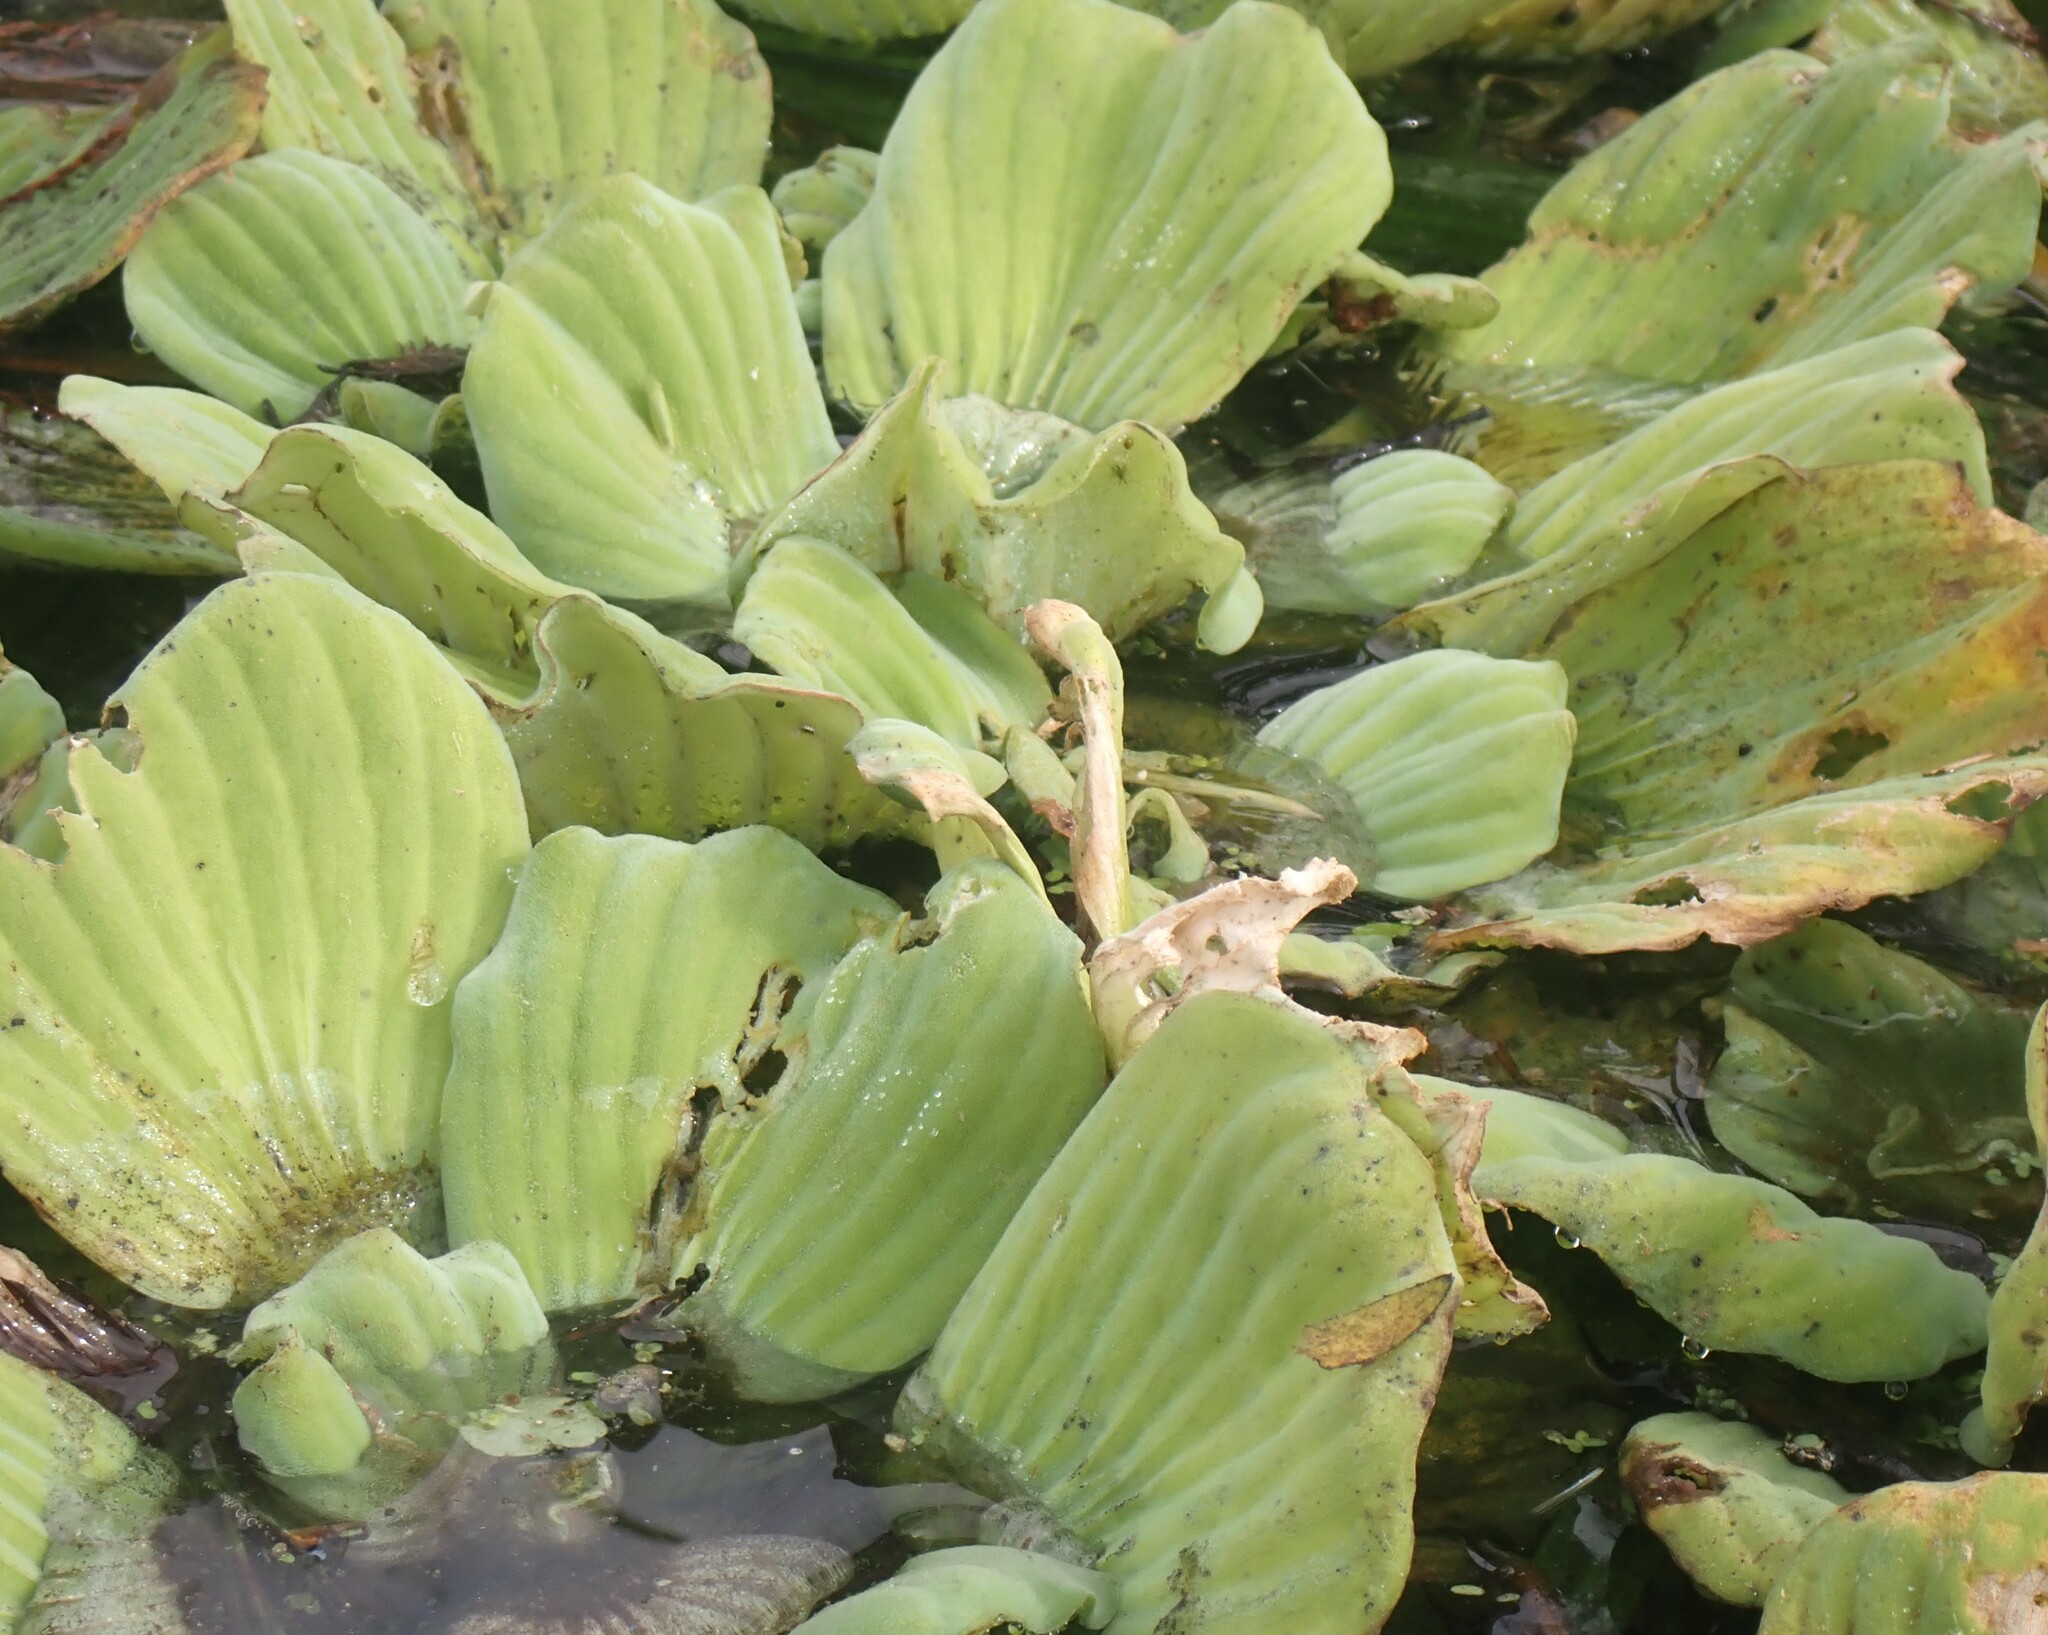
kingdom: Plantae
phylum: Tracheophyta
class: Liliopsida
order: Alismatales
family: Araceae
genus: Pistia
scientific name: Pistia stratiotes
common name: Water lettuce
